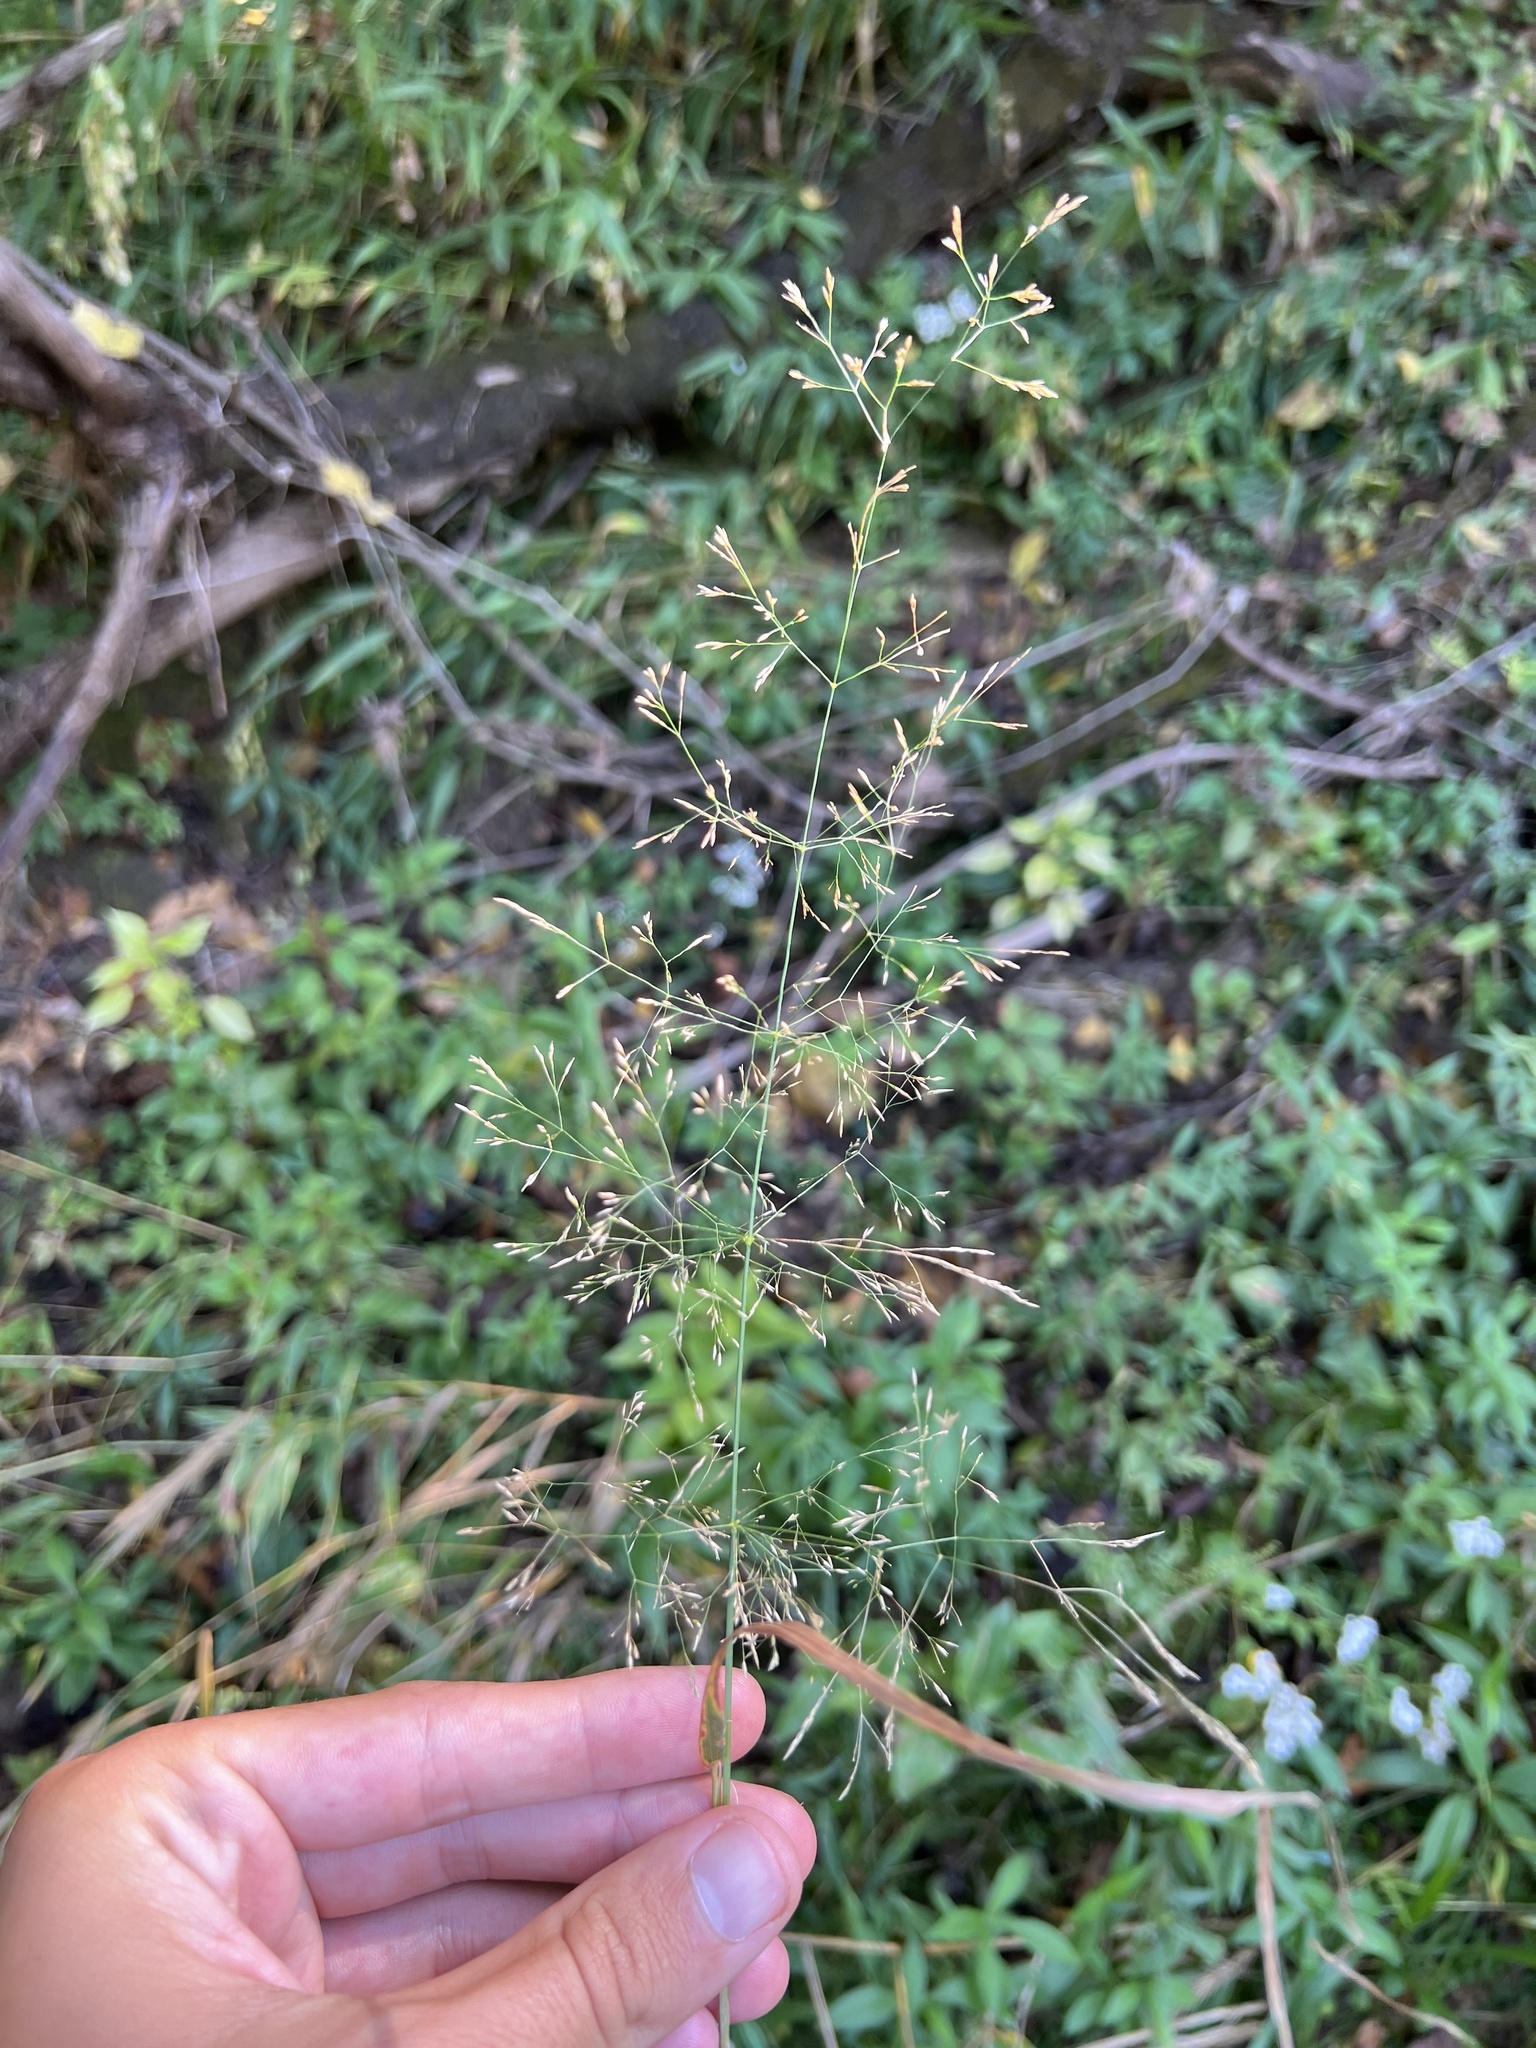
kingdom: Plantae
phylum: Tracheophyta
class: Liliopsida
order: Poales
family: Poaceae
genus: Agrostis
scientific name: Agrostis perennans
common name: Autumn bent
